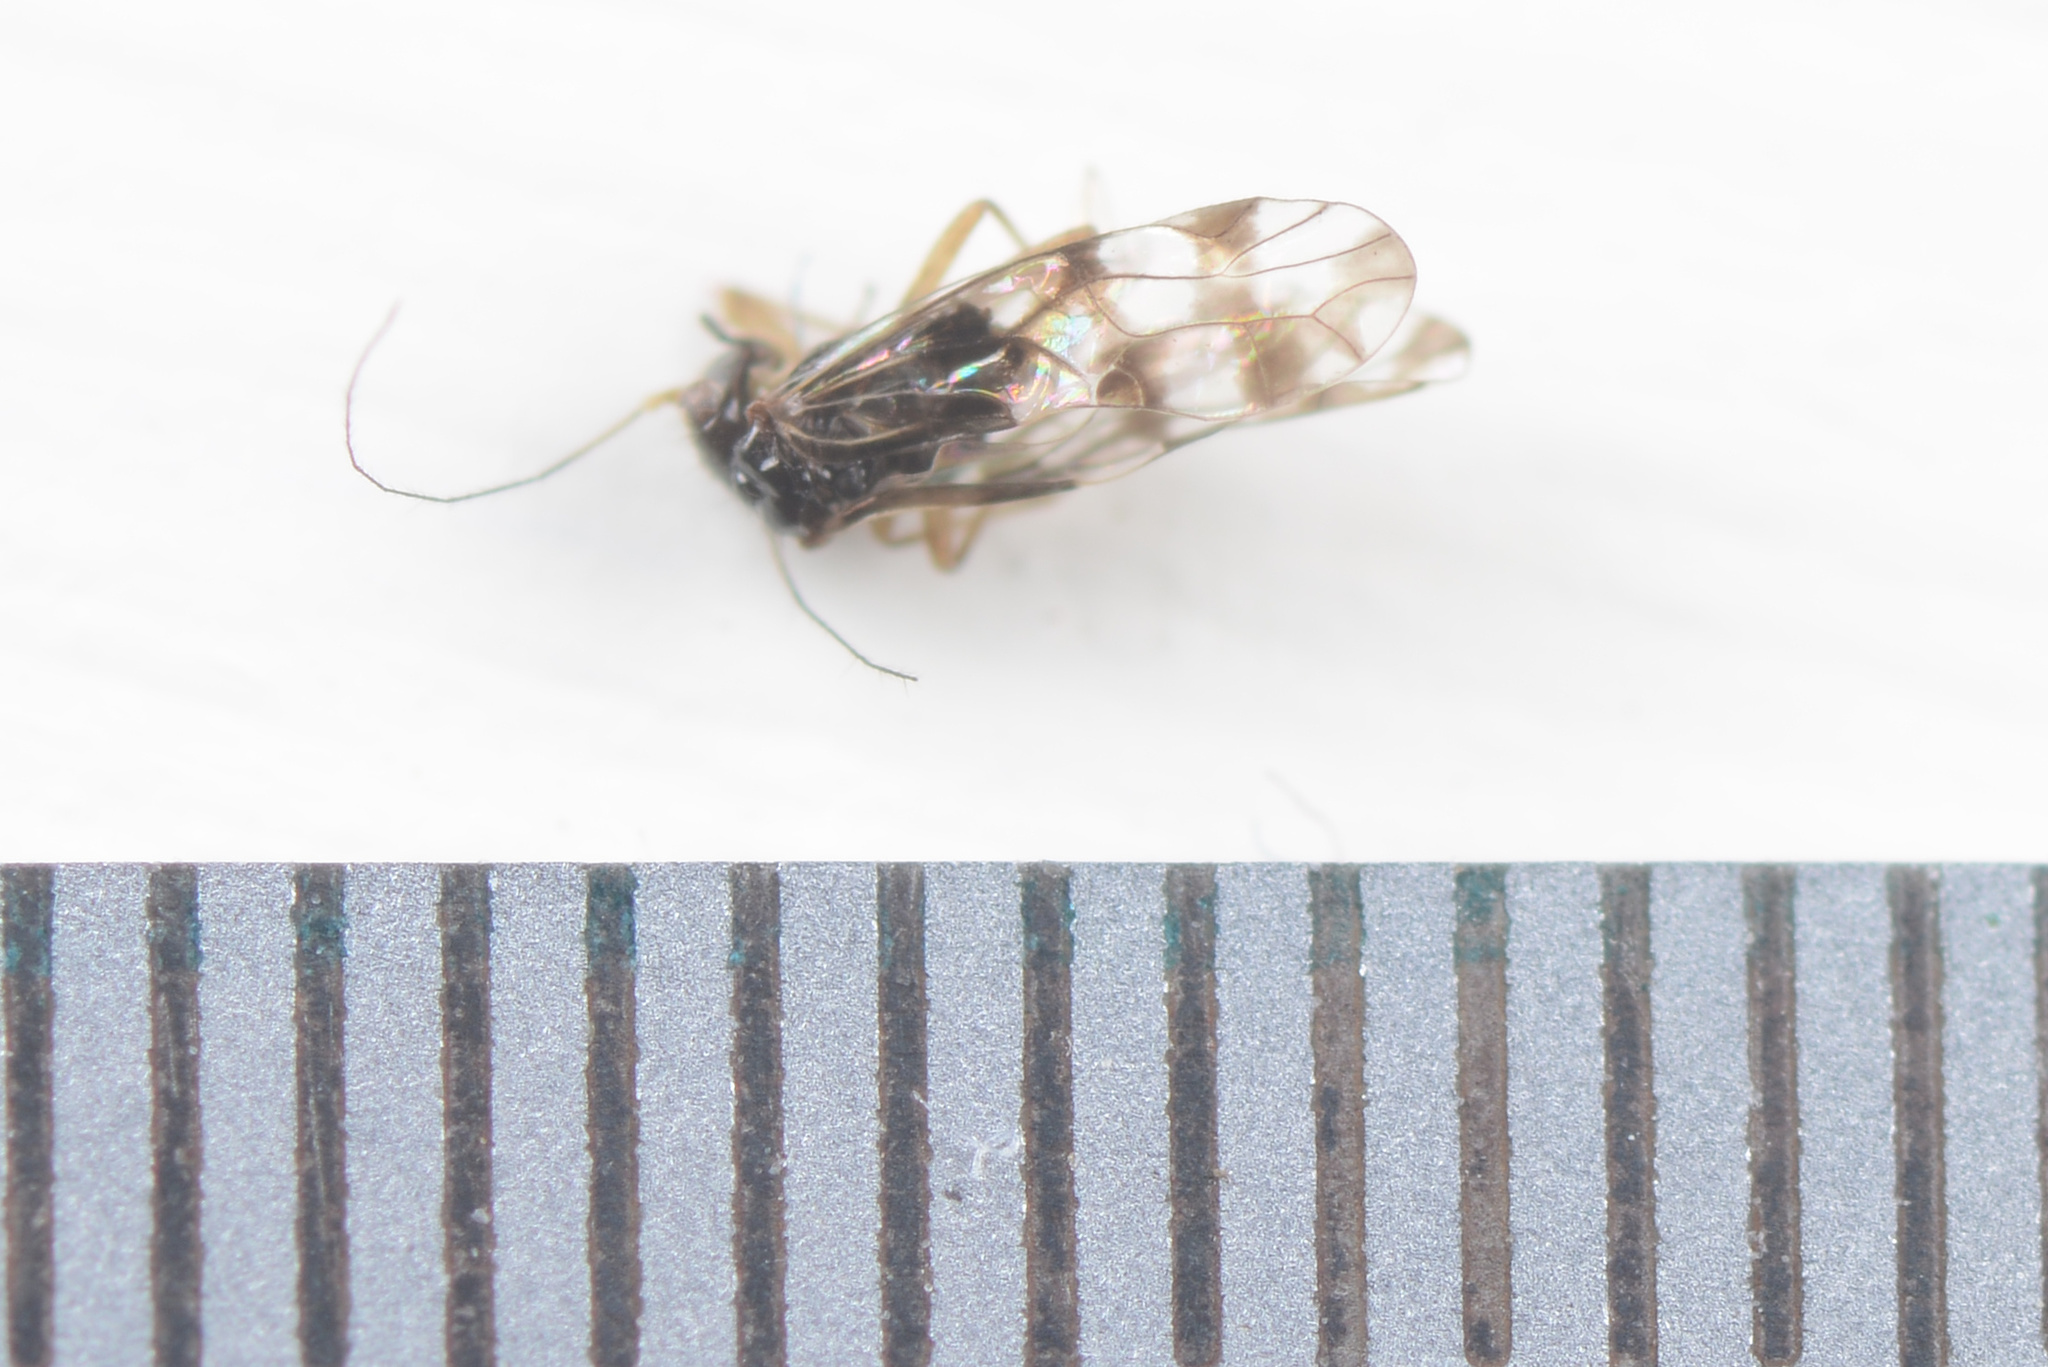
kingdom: Animalia
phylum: Arthropoda
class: Insecta
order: Psocodea
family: Elipsocidae
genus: Propsocus
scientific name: Propsocus pulchripennis
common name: Bark louse
